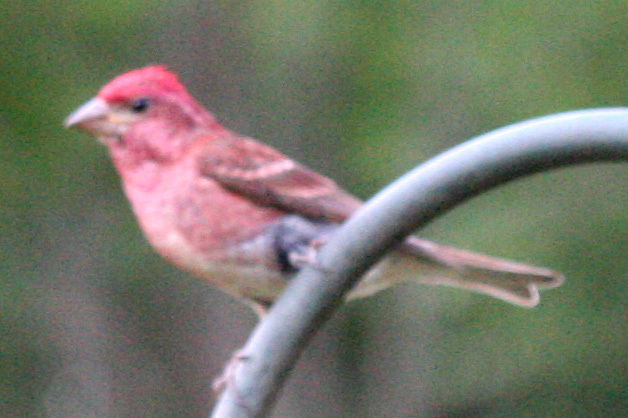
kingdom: Animalia
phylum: Chordata
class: Aves
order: Passeriformes
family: Fringillidae
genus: Haemorhous
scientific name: Haemorhous purpureus
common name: Purple finch
